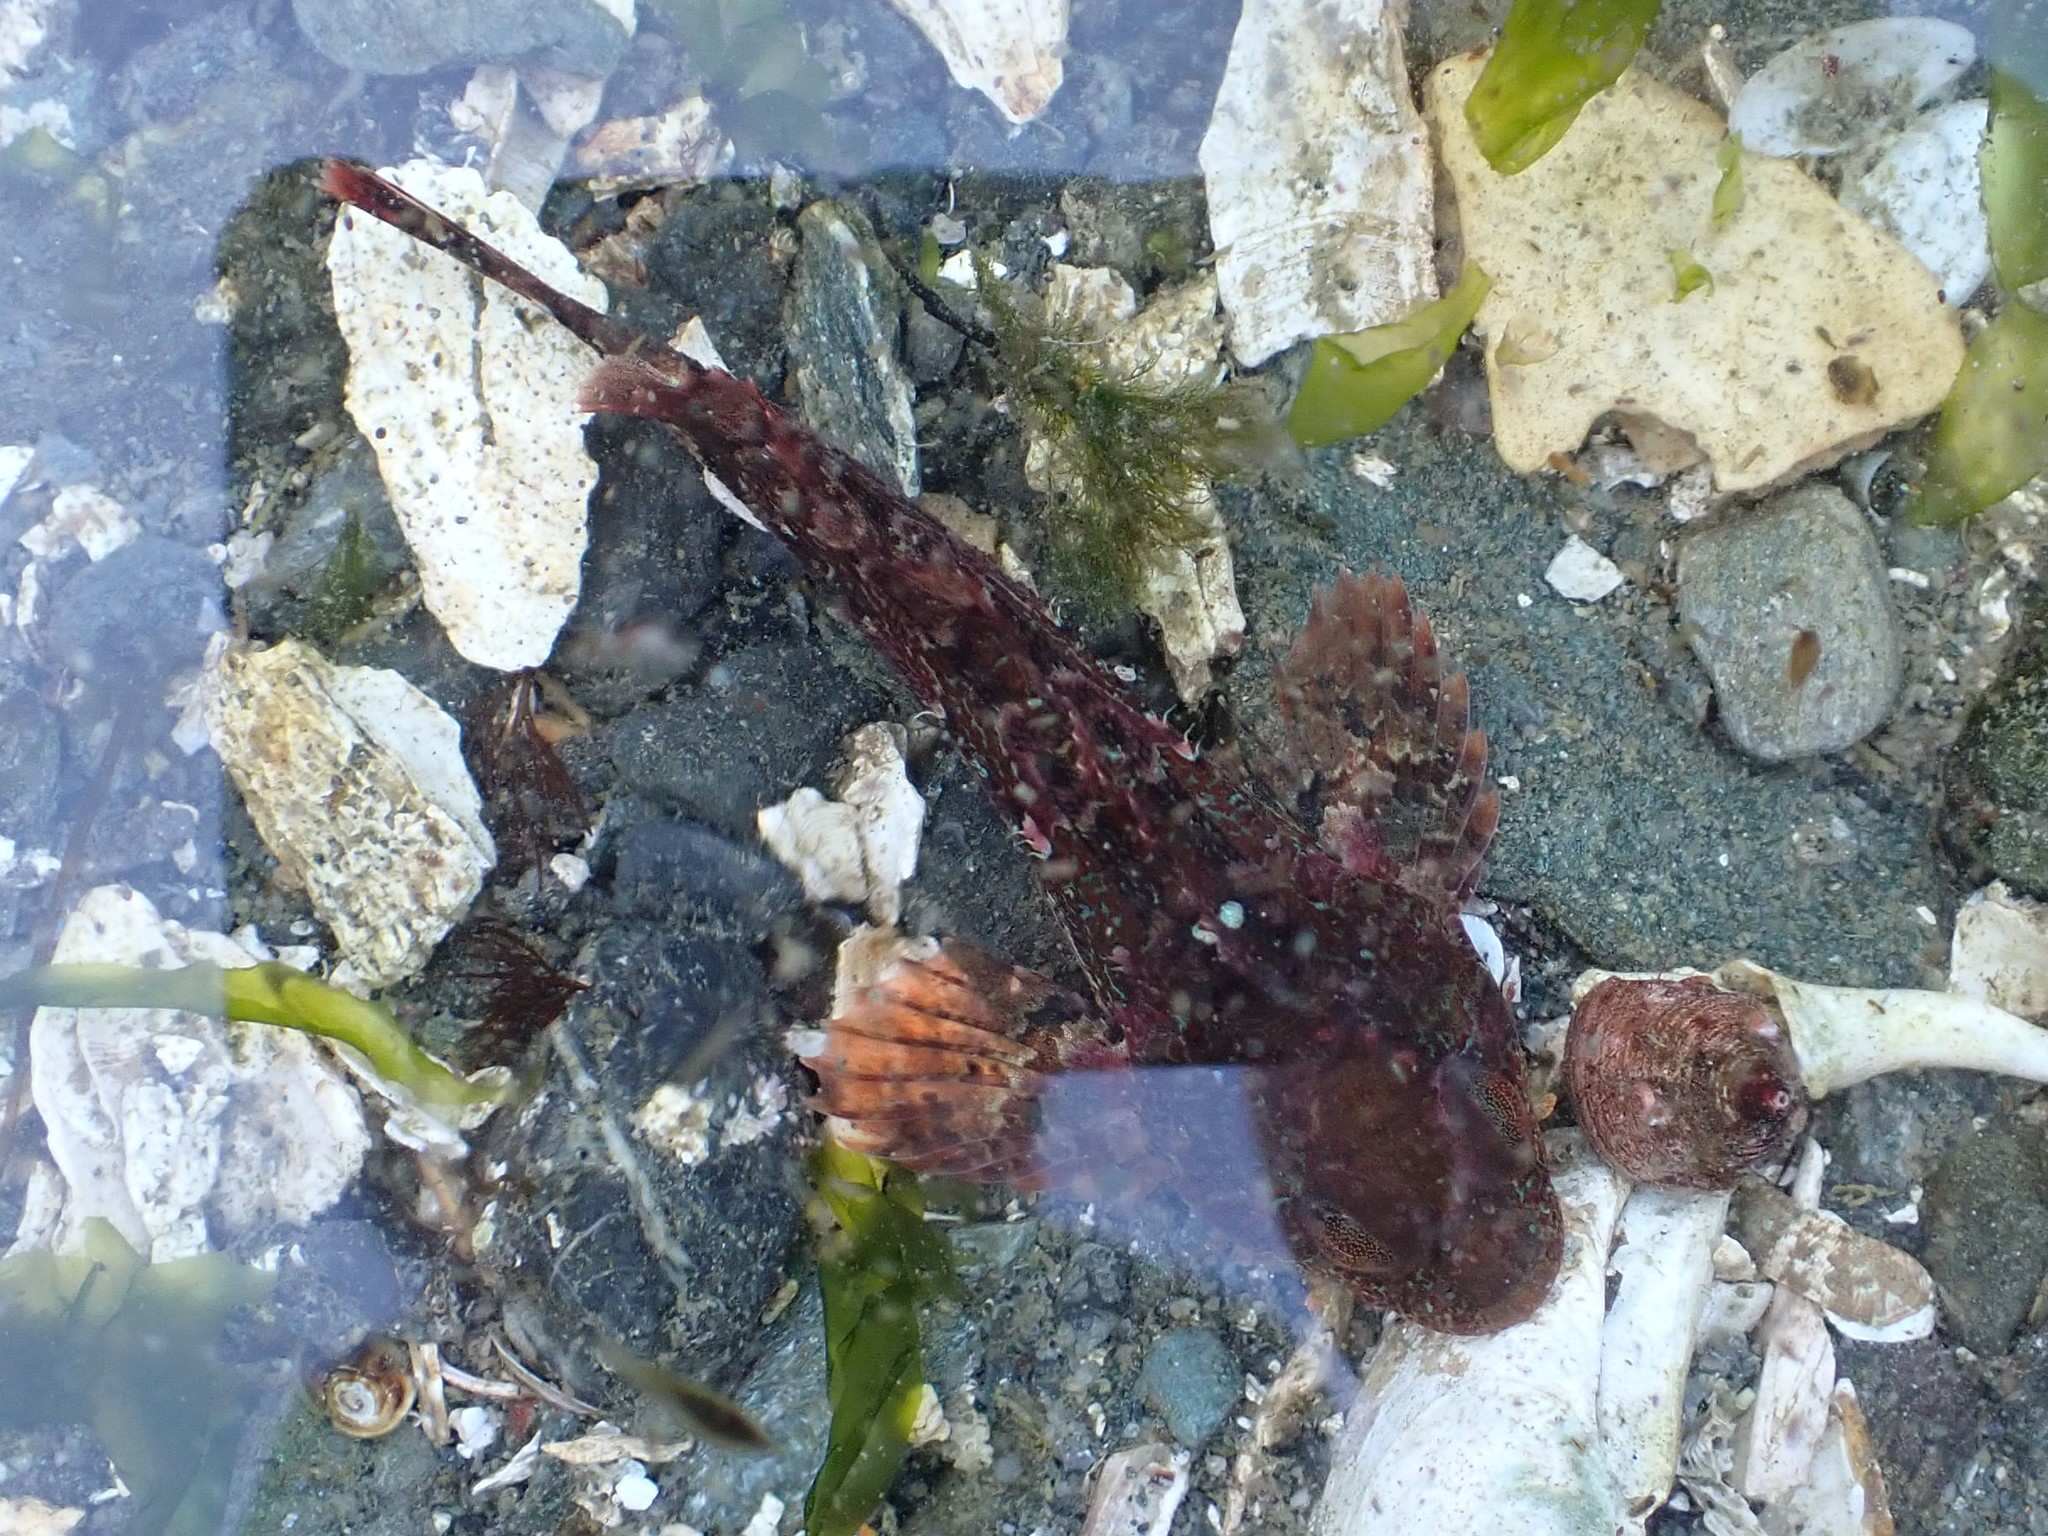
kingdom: Animalia
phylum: Chordata
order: Scorpaeniformes
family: Cottidae
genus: Hemilepidotus
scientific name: Hemilepidotus hemilepidotus
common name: Red irish lord
